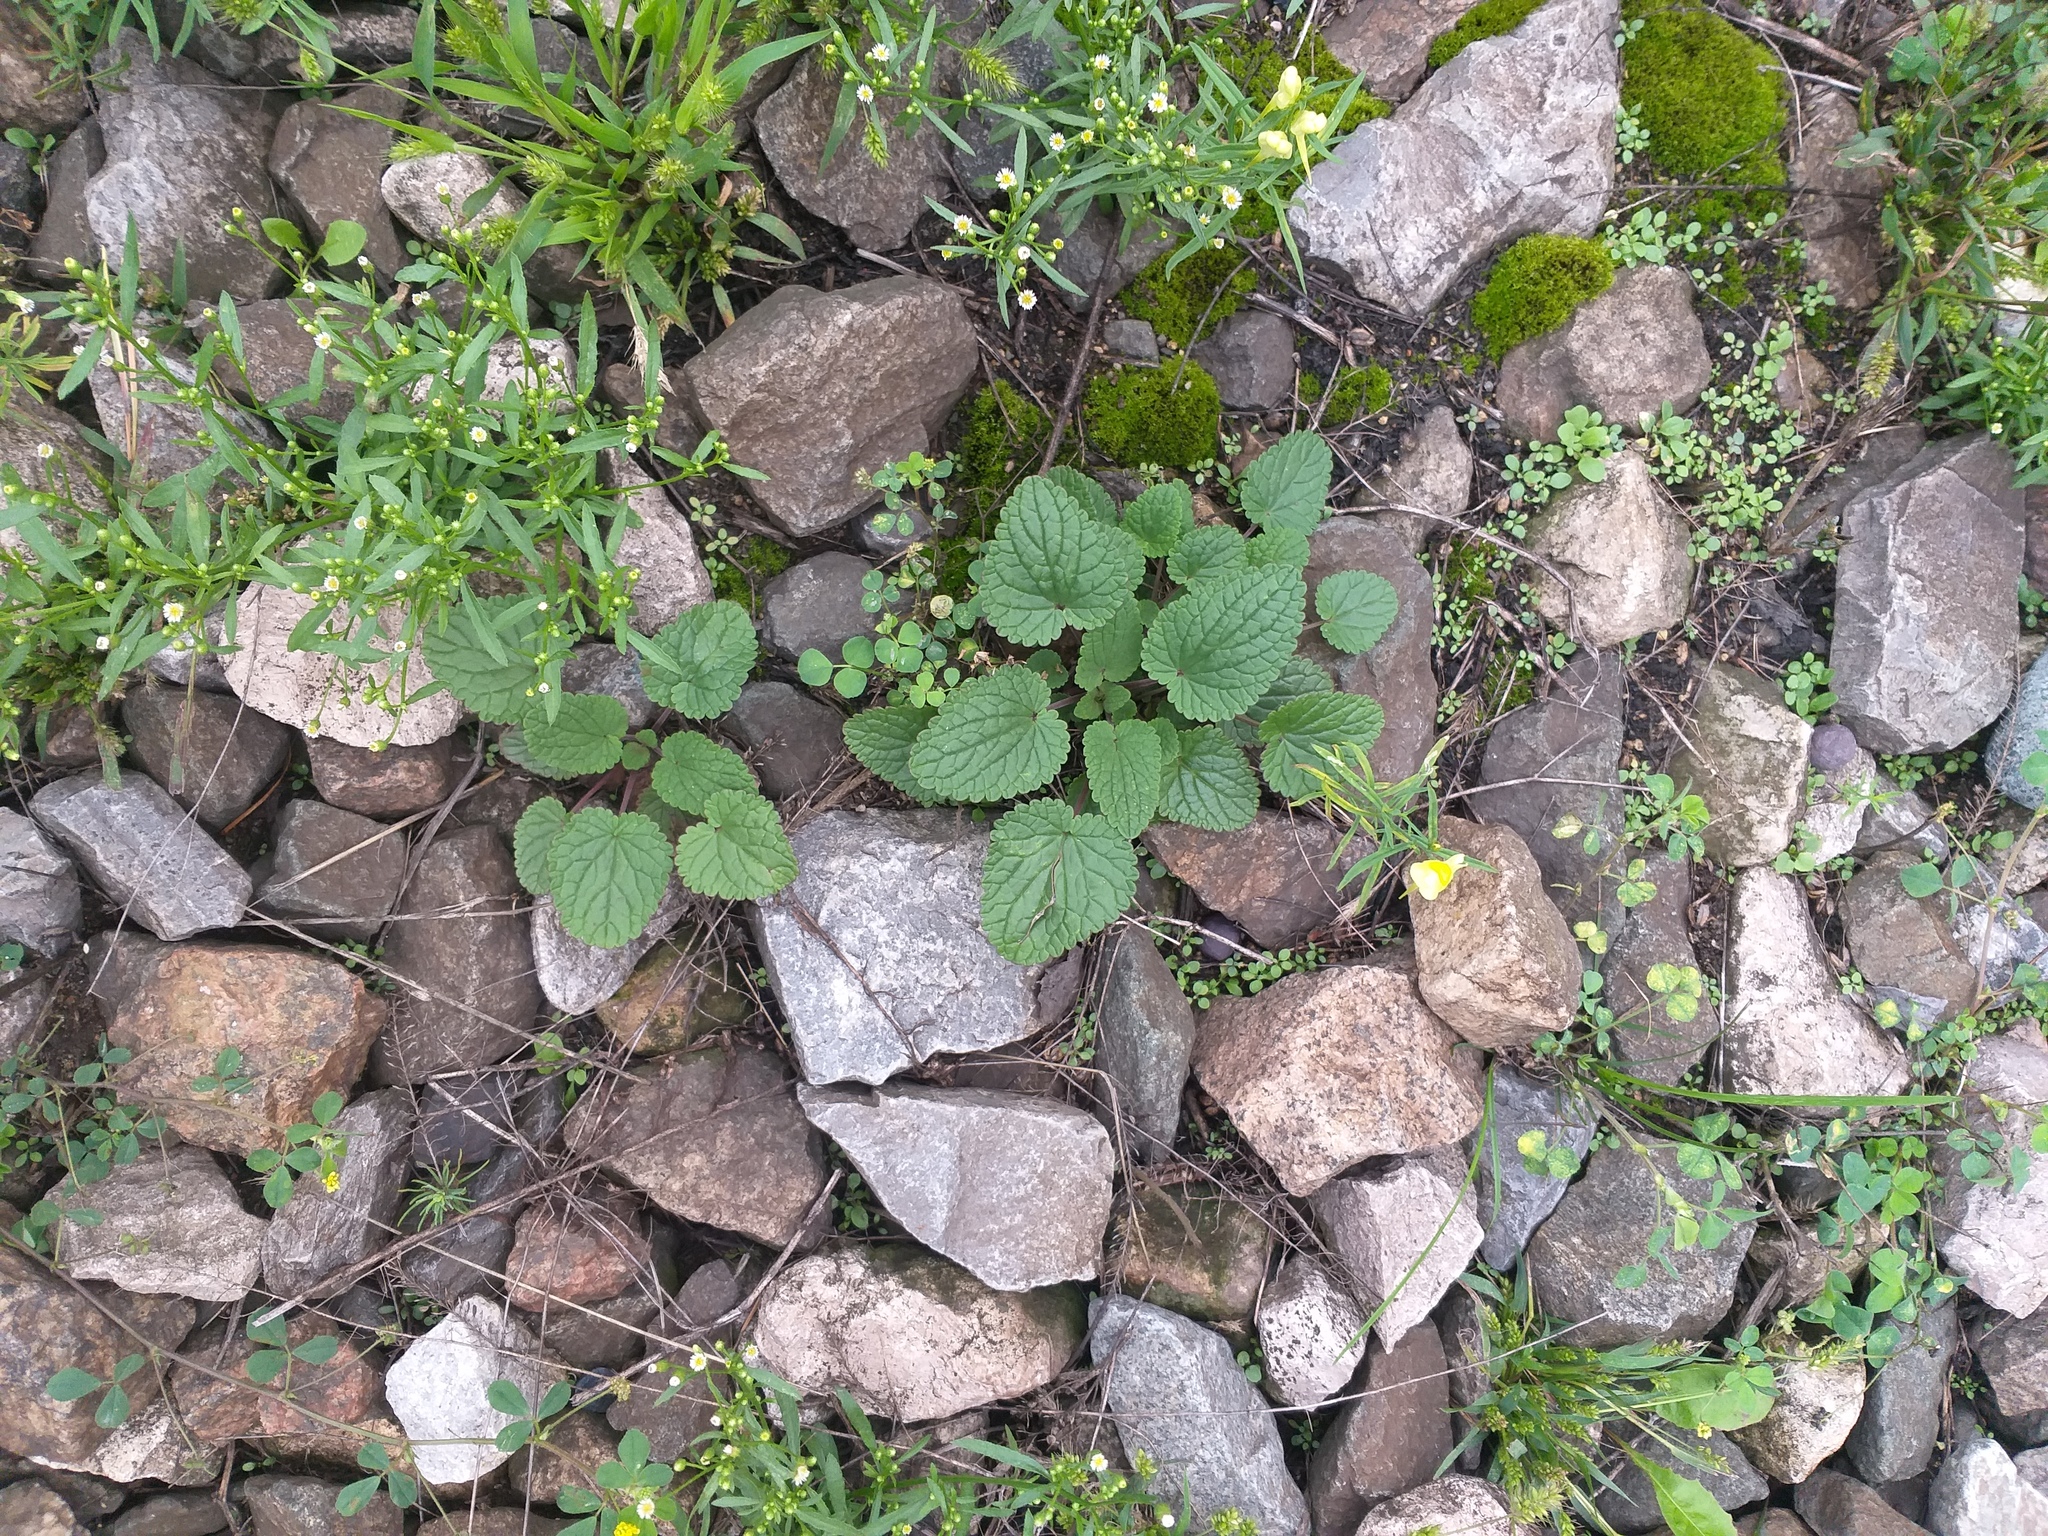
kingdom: Plantae
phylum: Tracheophyta
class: Magnoliopsida
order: Lamiales
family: Lamiaceae
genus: Dracocephalum
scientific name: Dracocephalum nutans
